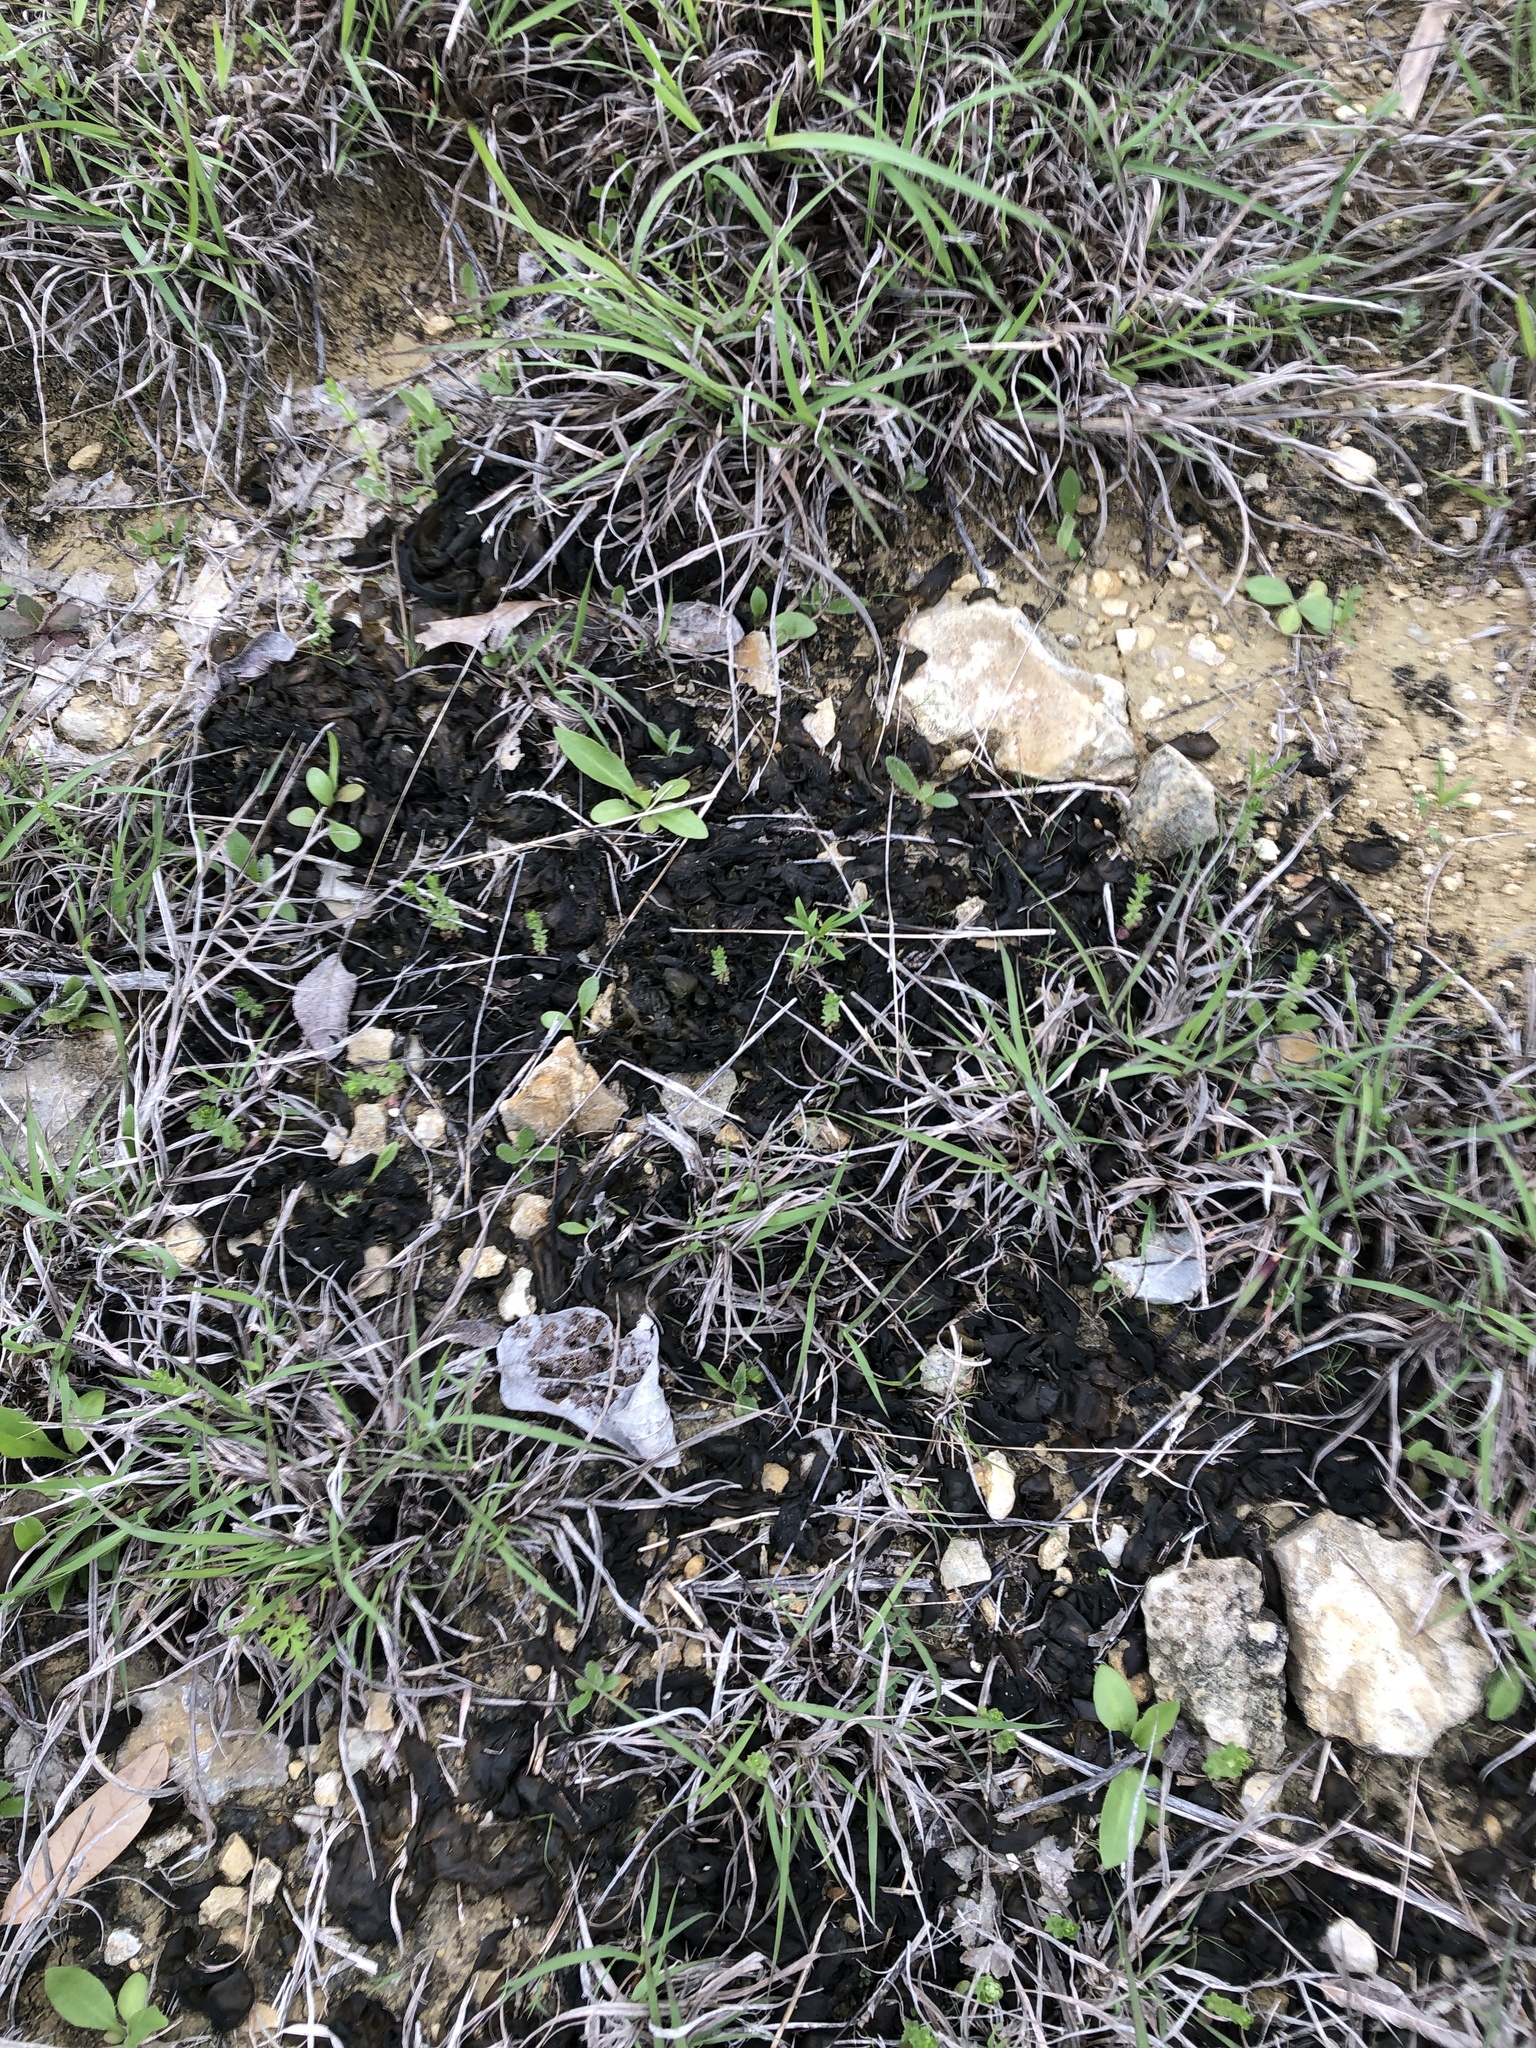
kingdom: Bacteria
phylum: Cyanobacteria
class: Cyanobacteriia
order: Cyanobacteriales
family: Nostocaceae
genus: Nostoc
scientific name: Nostoc commune
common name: Star jelly
